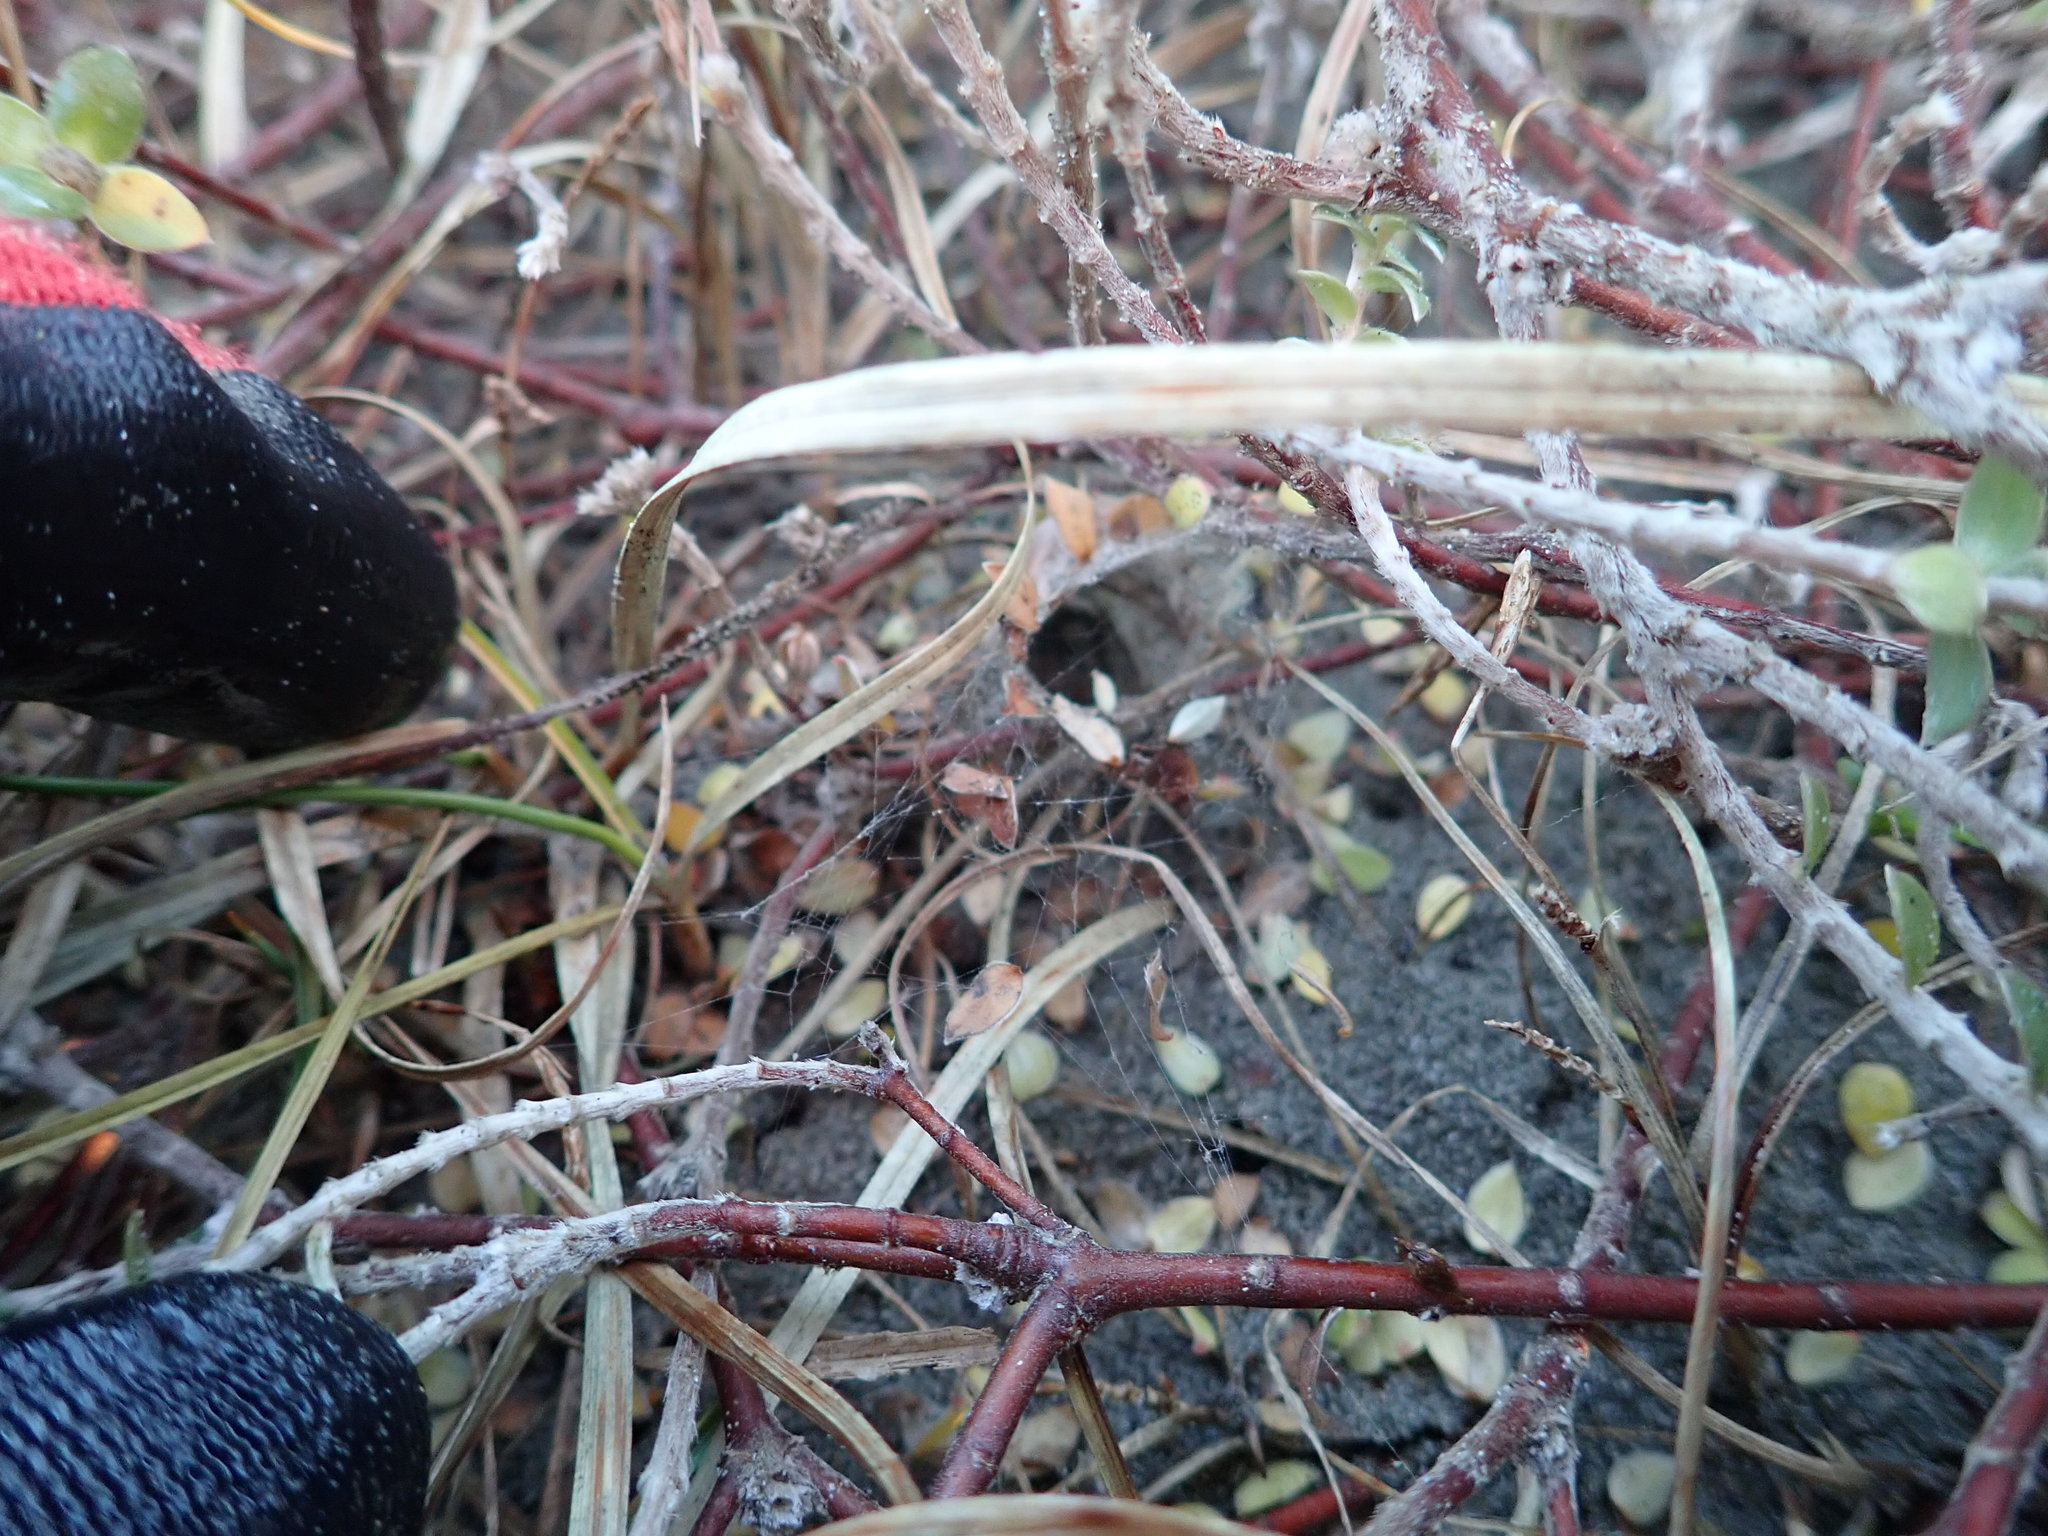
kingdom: Animalia
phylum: Arthropoda
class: Arachnida
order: Araneae
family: Theridiidae
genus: Latrodectus
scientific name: Latrodectus katipo
